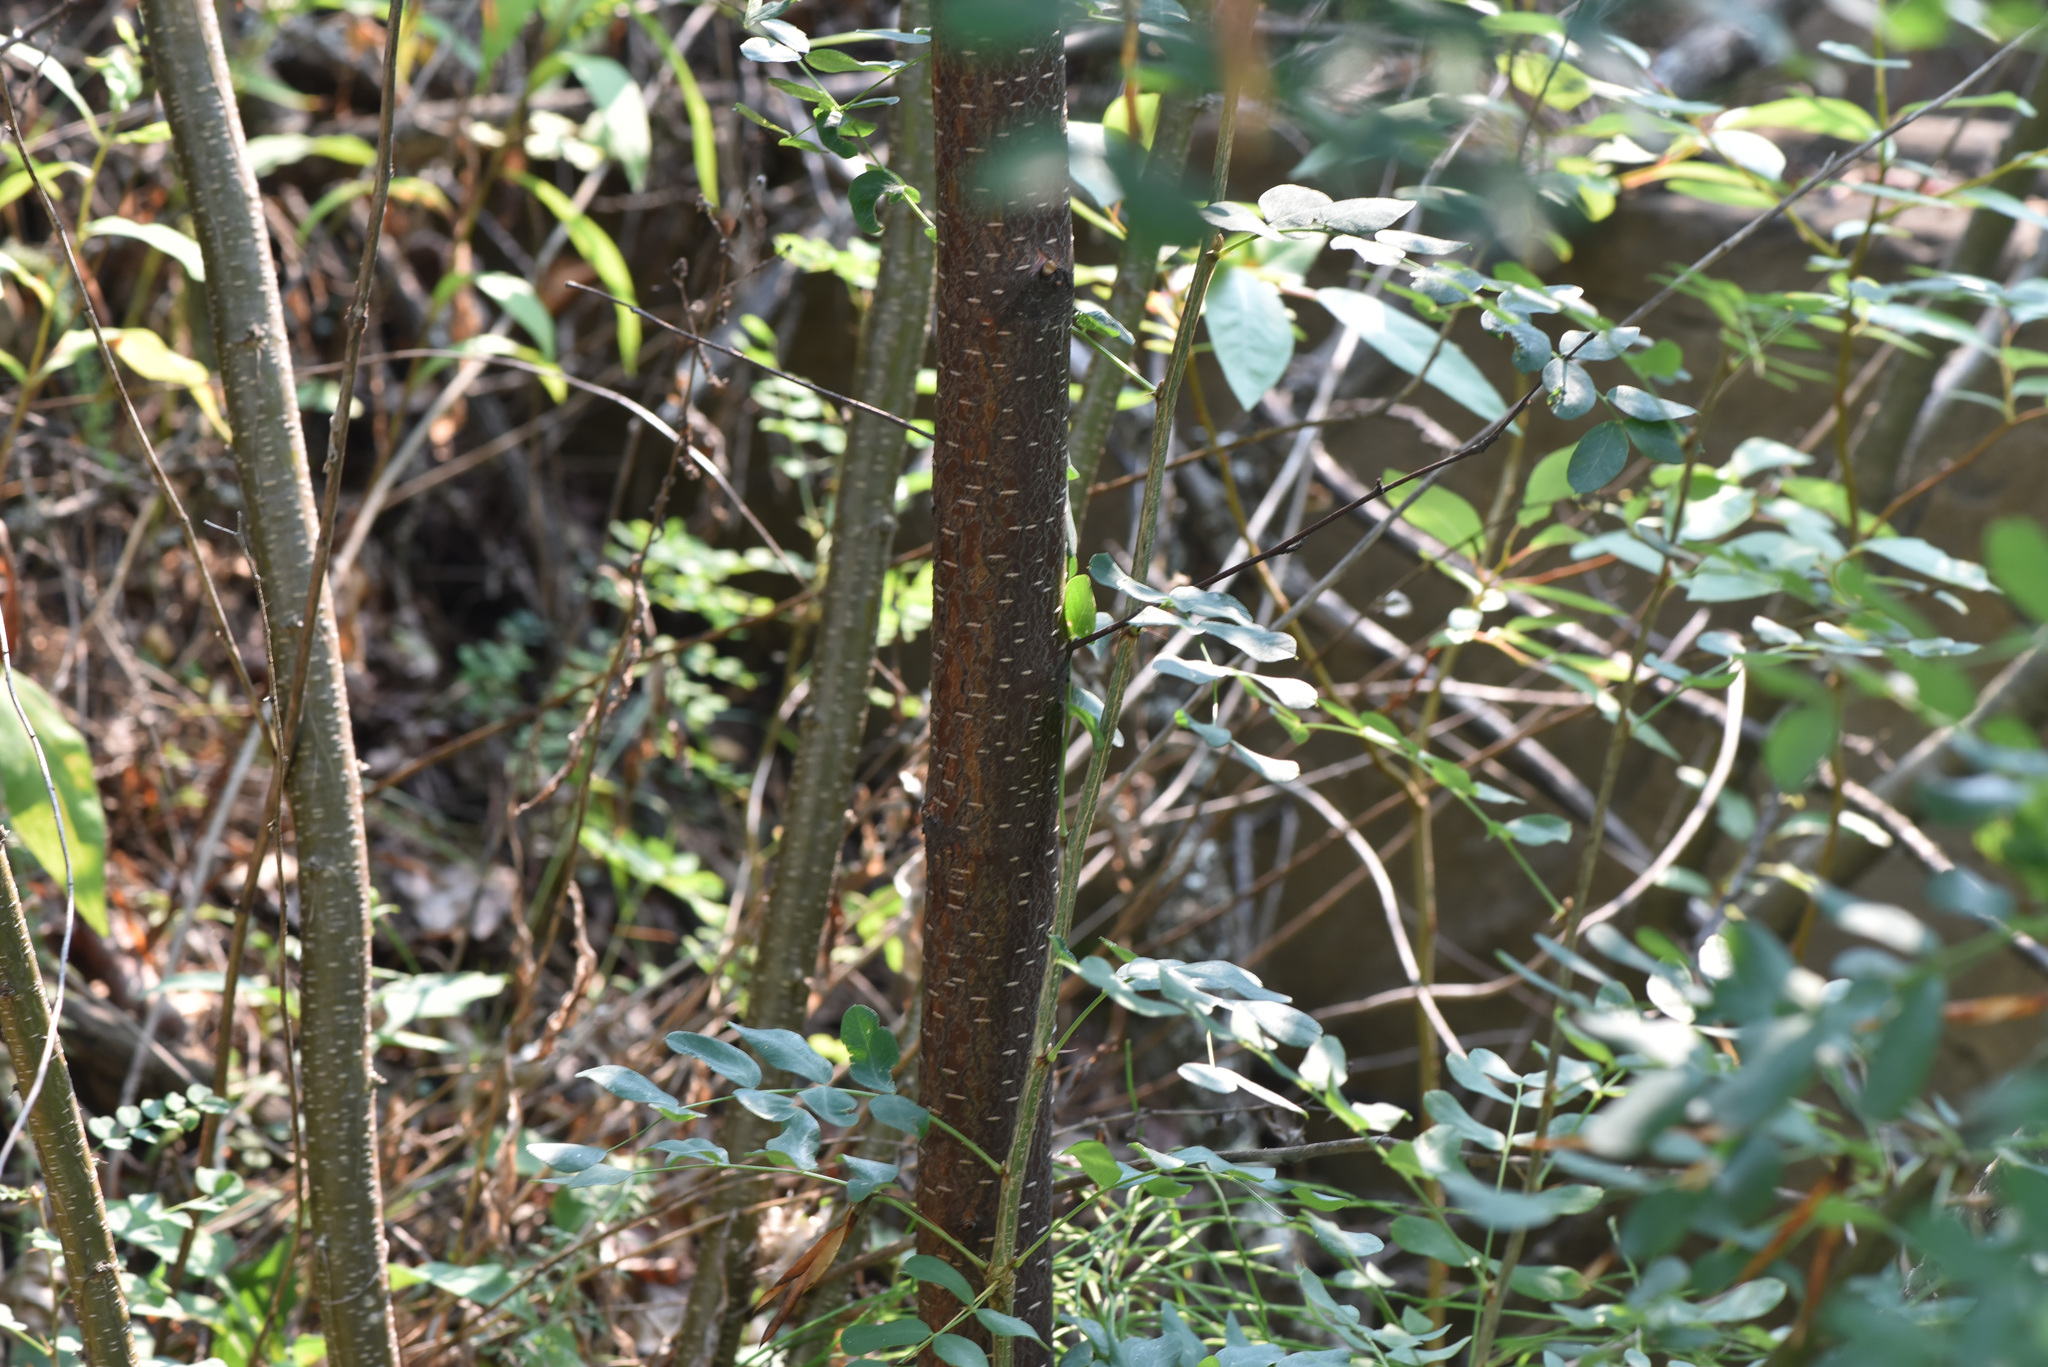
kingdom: Plantae
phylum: Tracheophyta
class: Magnoliopsida
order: Fabales
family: Fabaceae
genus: Caragana
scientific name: Caragana arborescens
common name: Siberian peashrub
